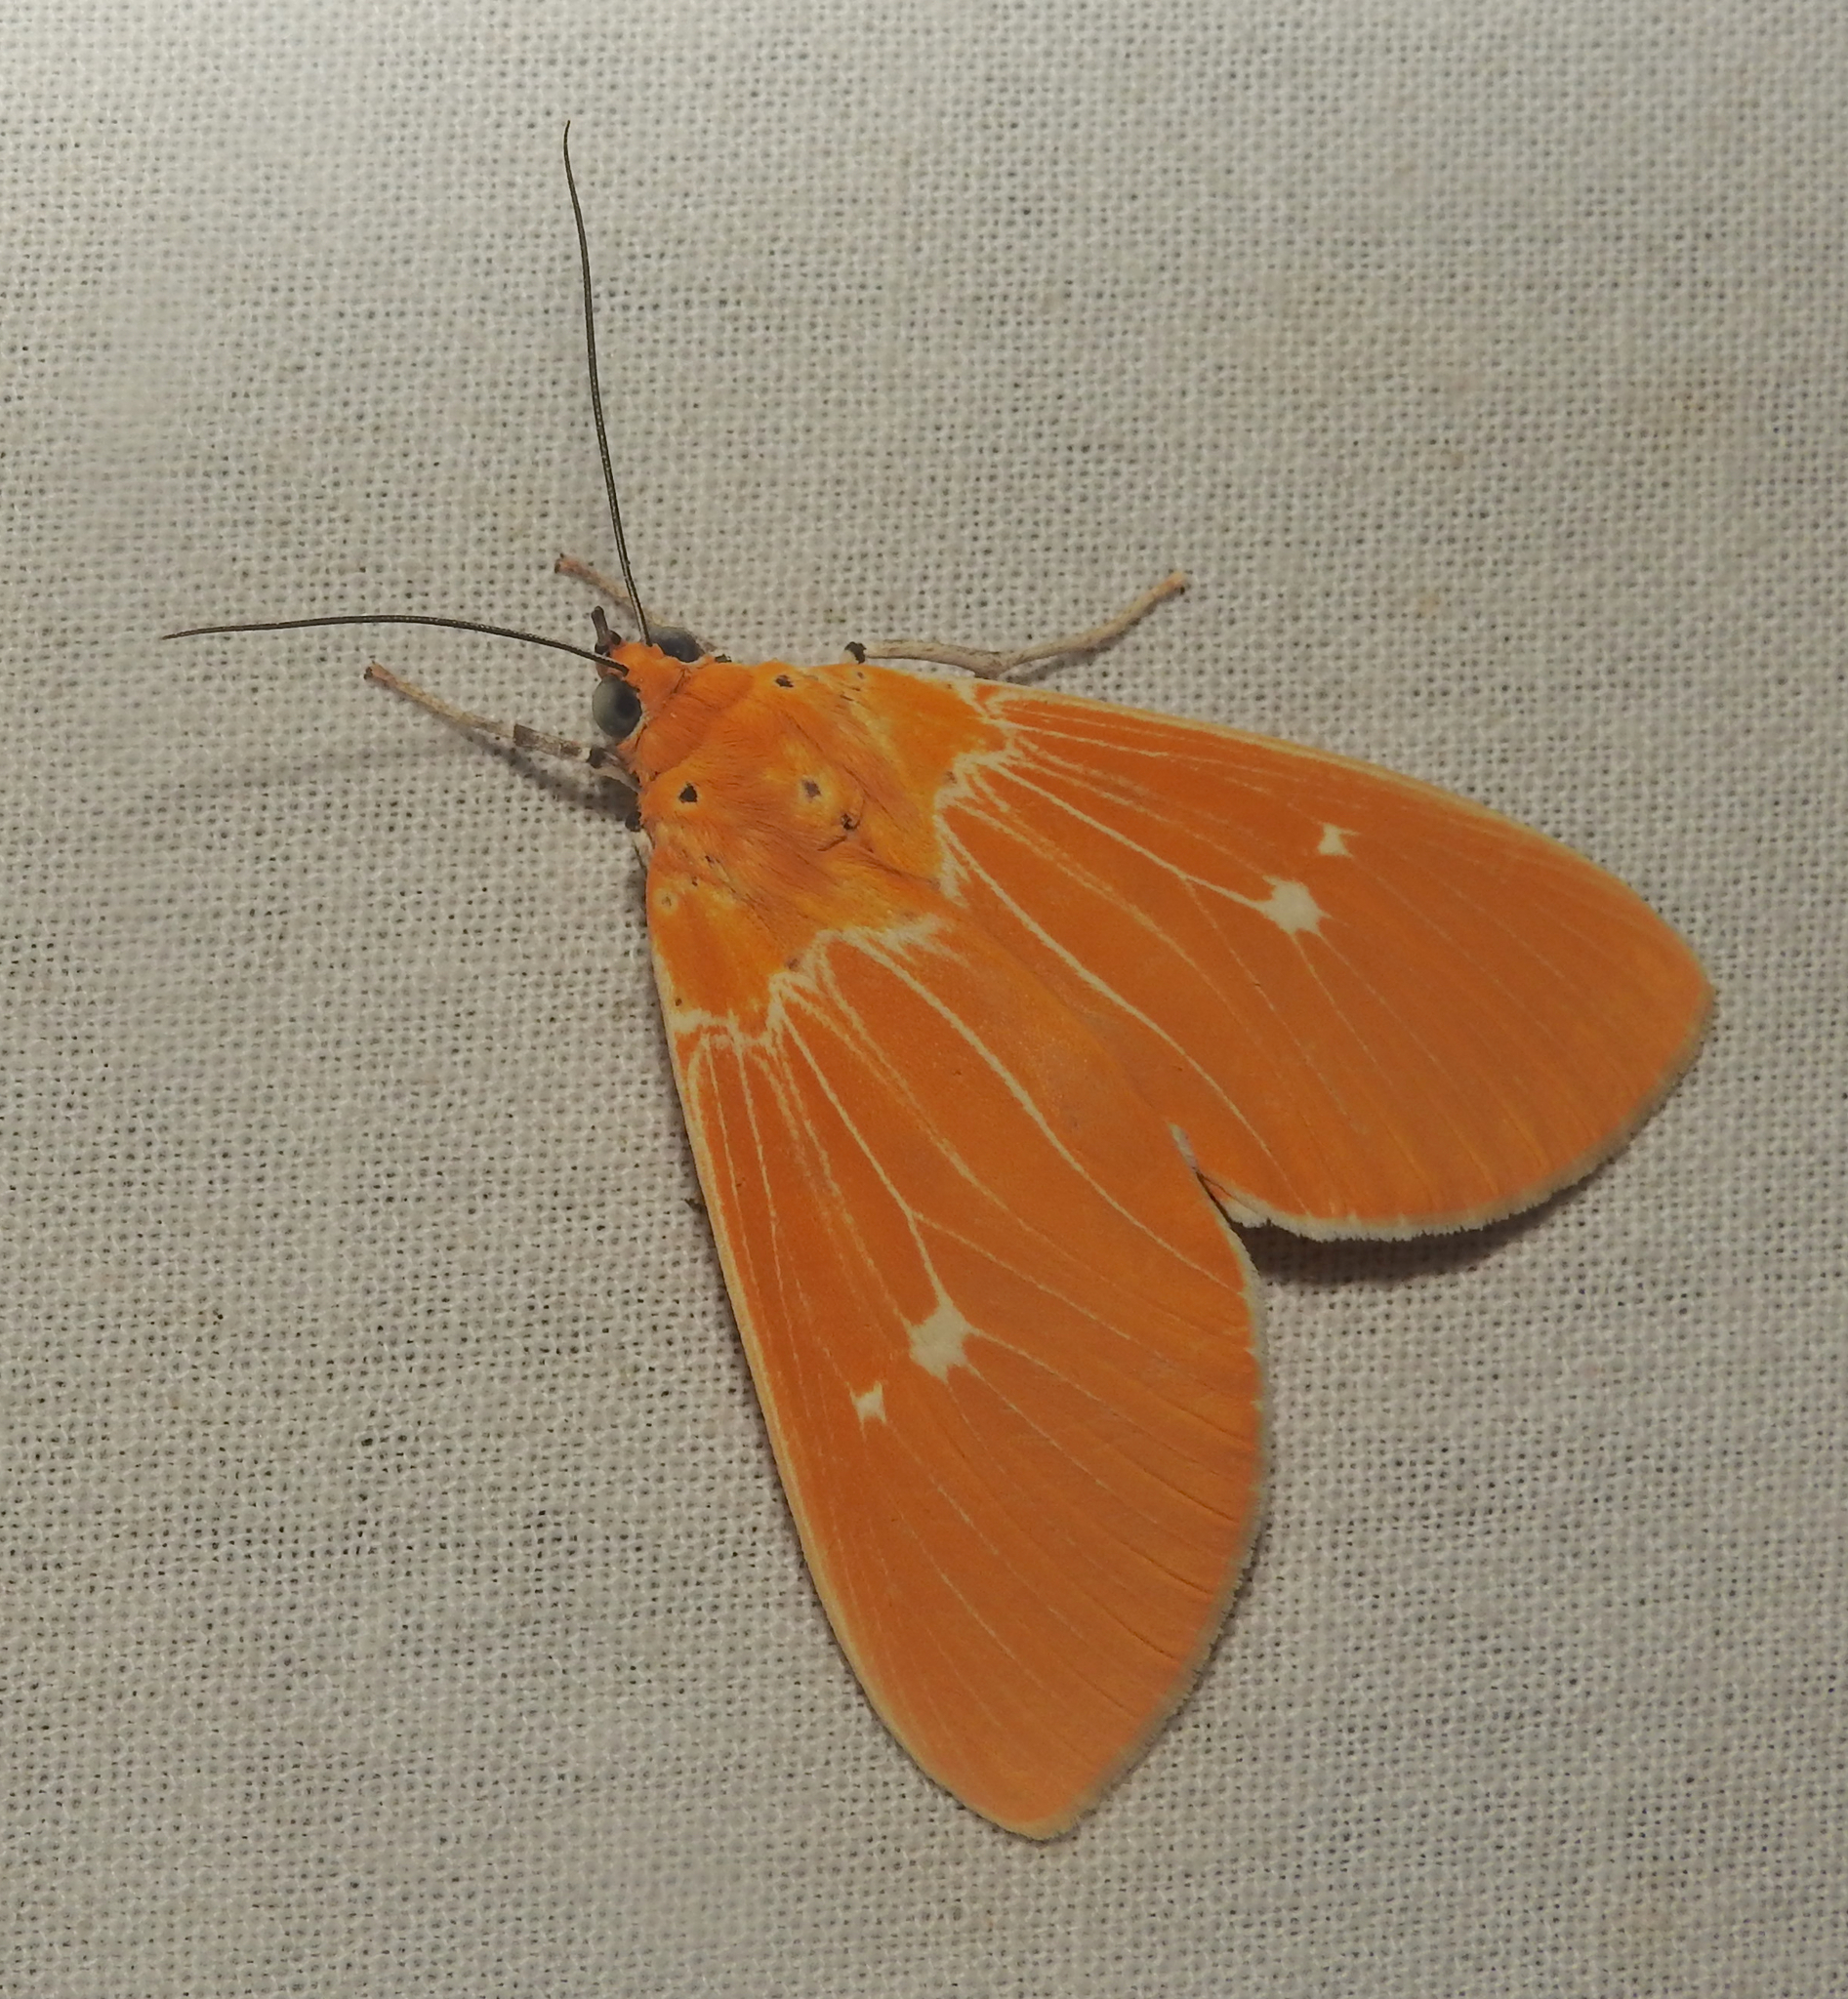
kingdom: Animalia
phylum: Arthropoda
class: Insecta
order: Lepidoptera
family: Erebidae
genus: Asota
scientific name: Asota sericea
